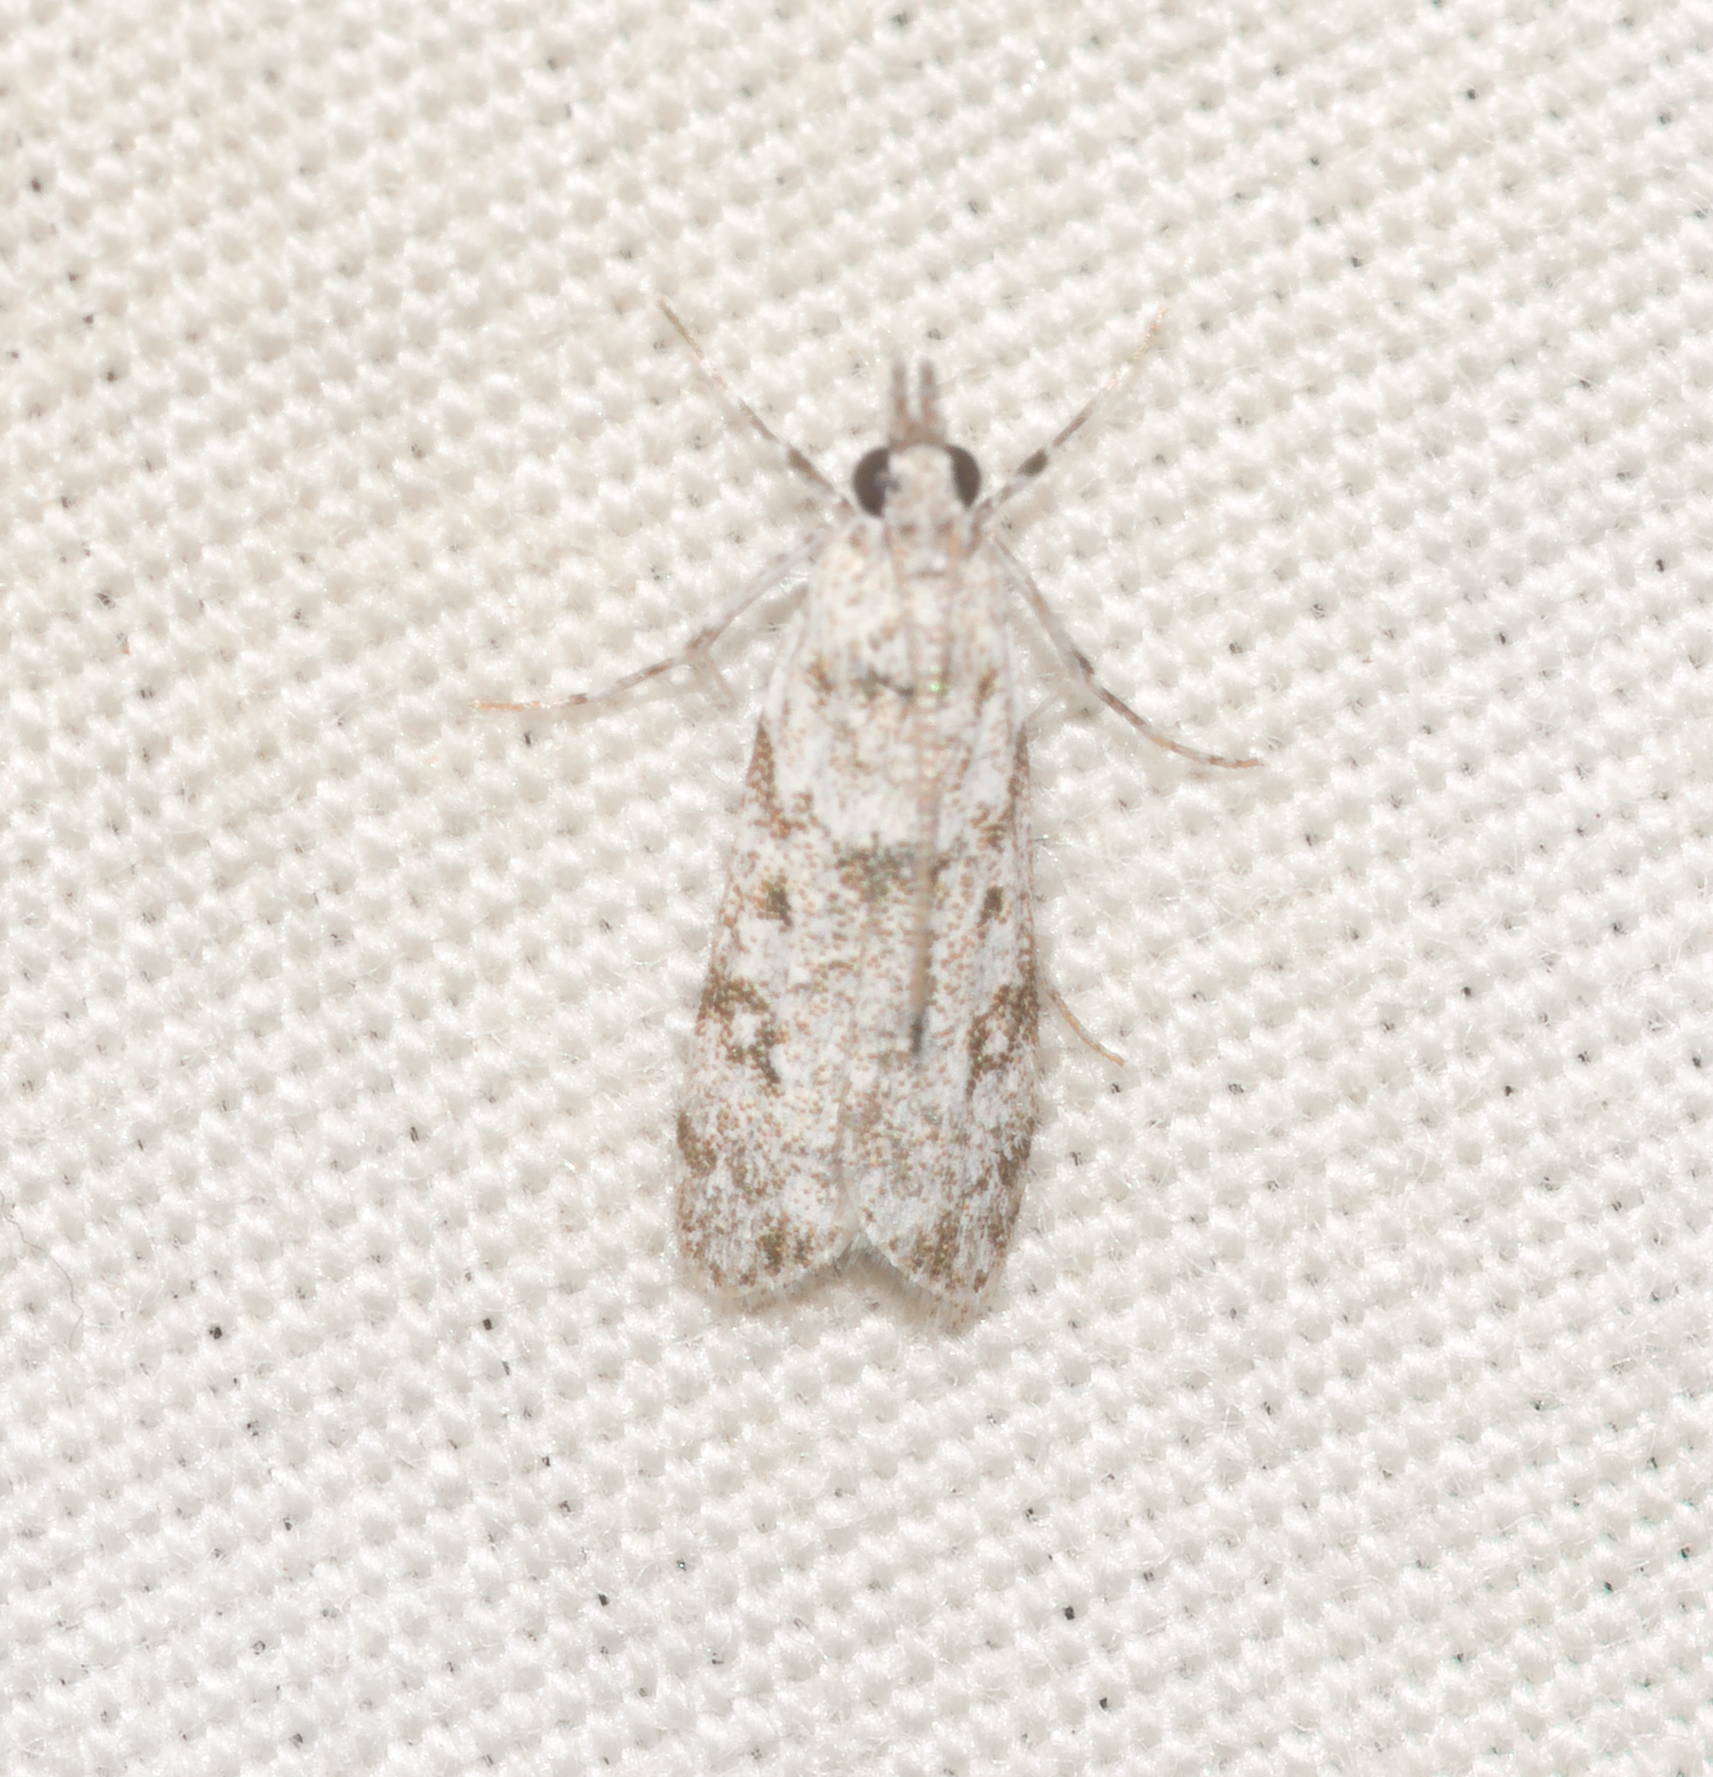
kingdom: Animalia
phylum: Arthropoda
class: Insecta
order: Lepidoptera
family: Crambidae
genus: Eudonia
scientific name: Eudonia geraea
